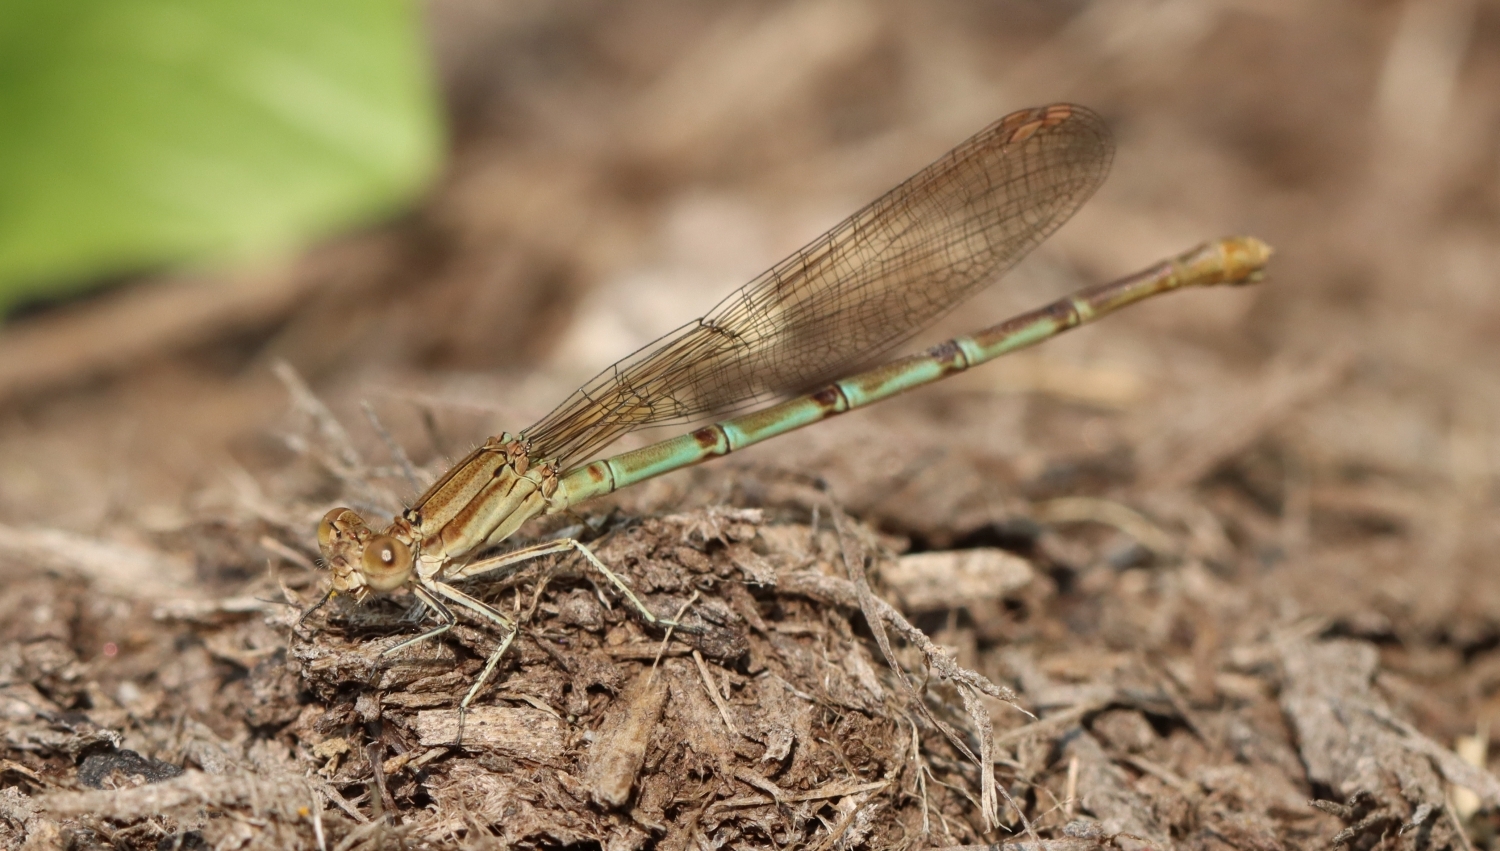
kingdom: Animalia
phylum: Arthropoda
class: Insecta
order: Odonata
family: Coenagrionidae
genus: Argia
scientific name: Argia sedula
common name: Blue-ringed dancer
